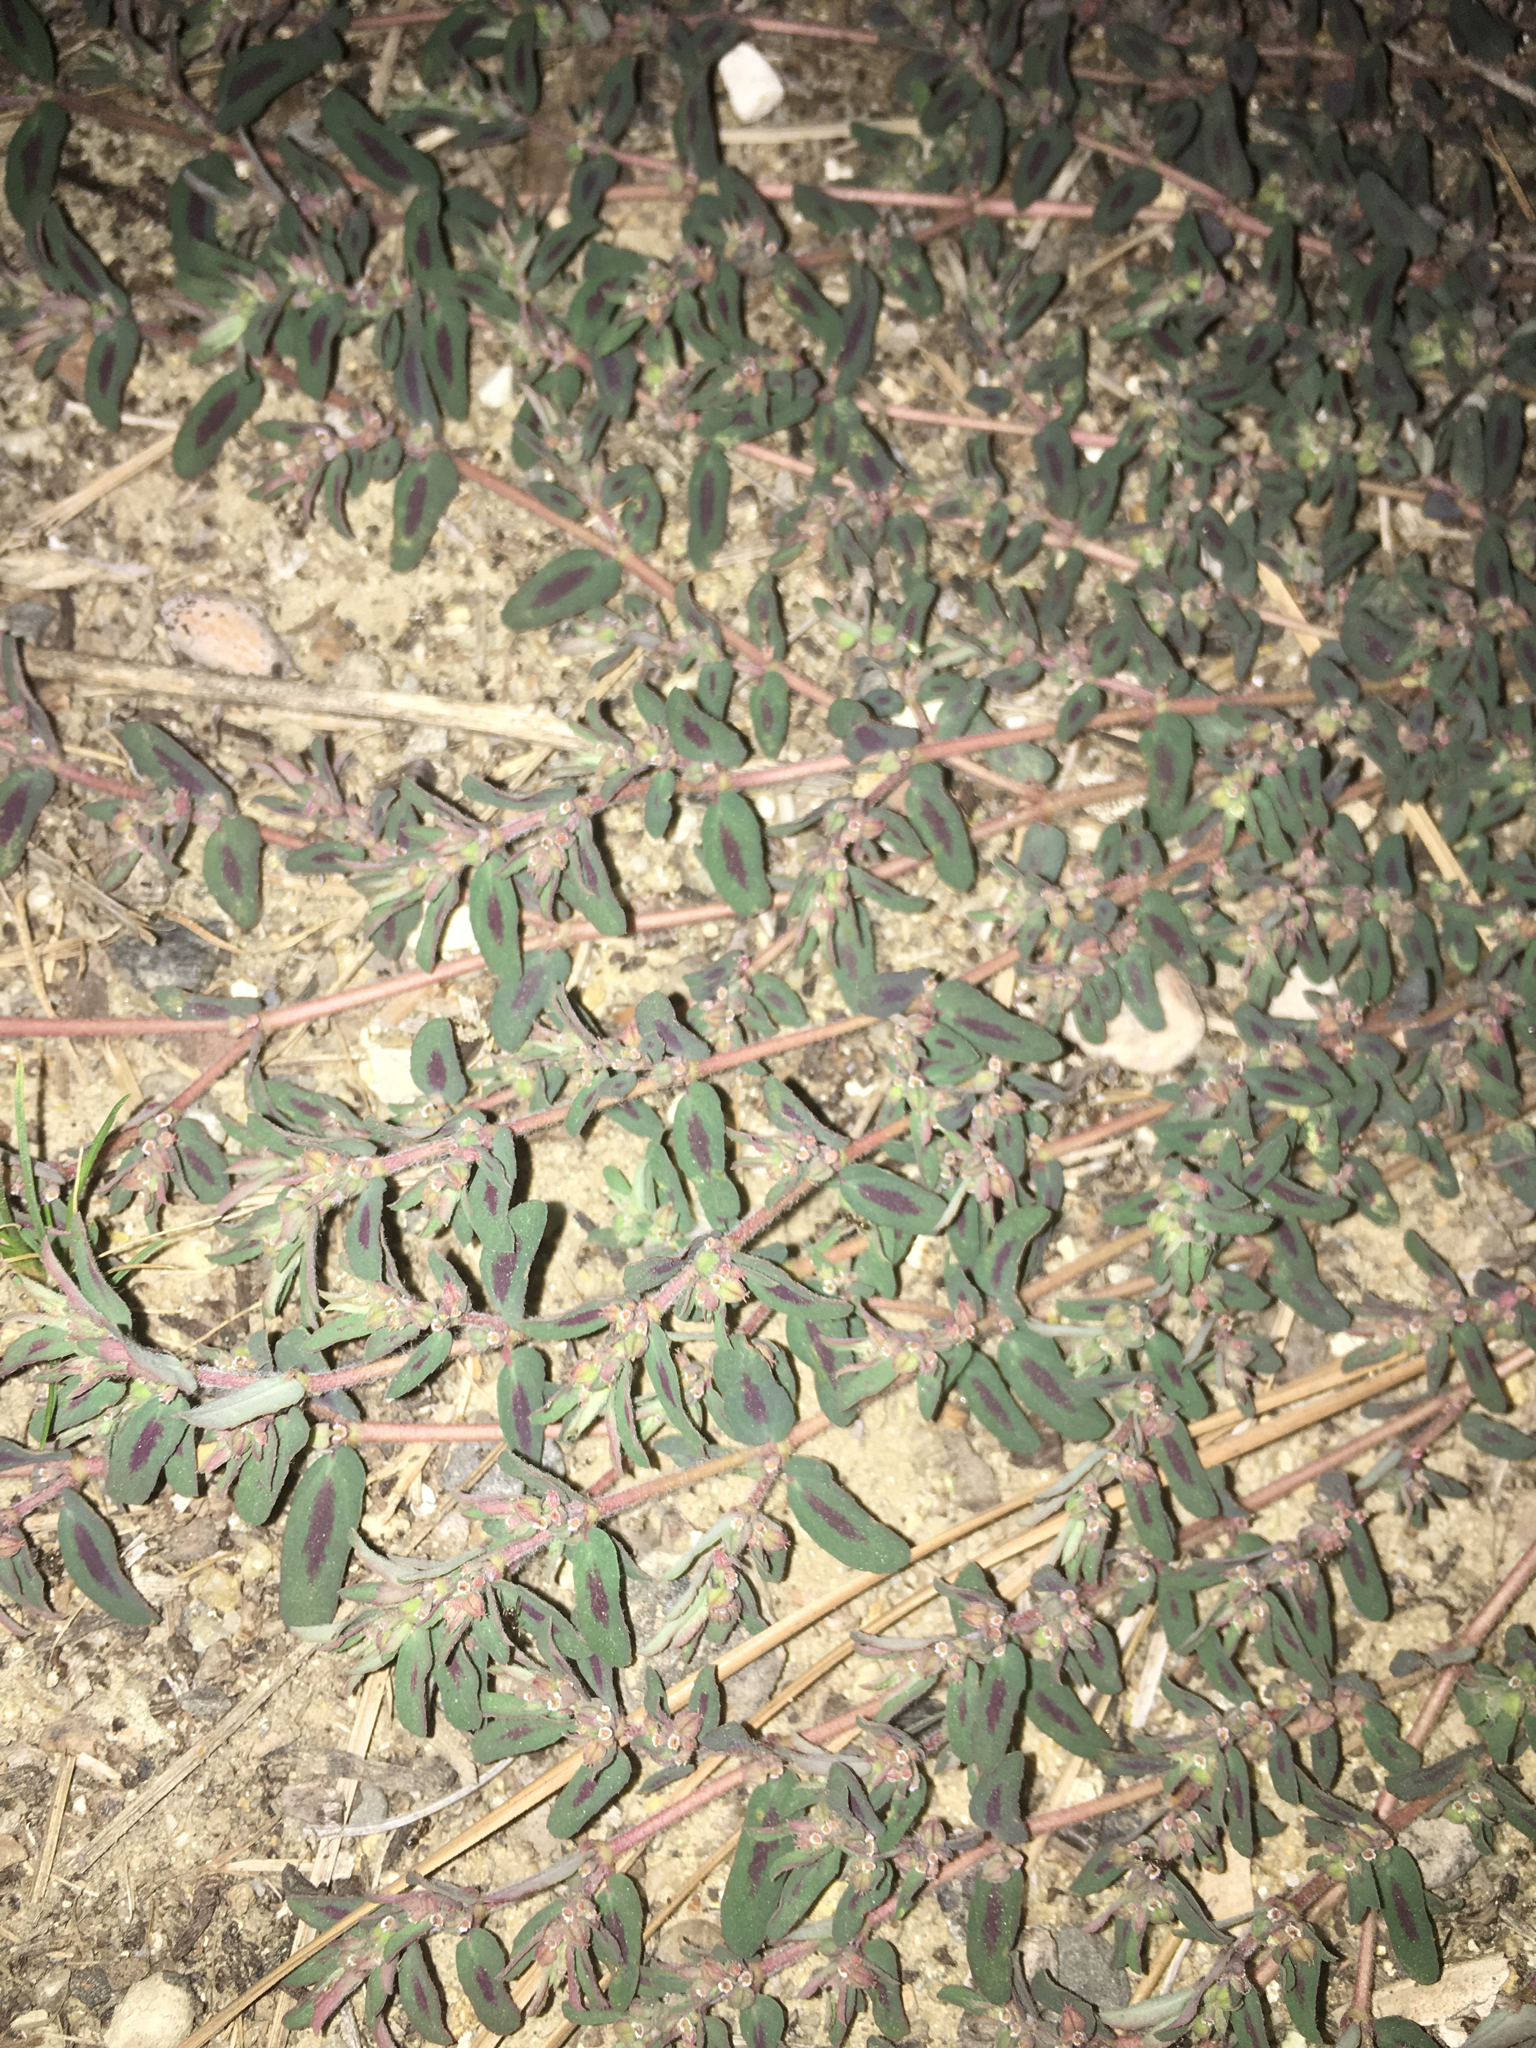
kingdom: Plantae
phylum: Tracheophyta
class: Magnoliopsida
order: Malpighiales
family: Euphorbiaceae
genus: Euphorbia
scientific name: Euphorbia maculata
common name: Spotted spurge
